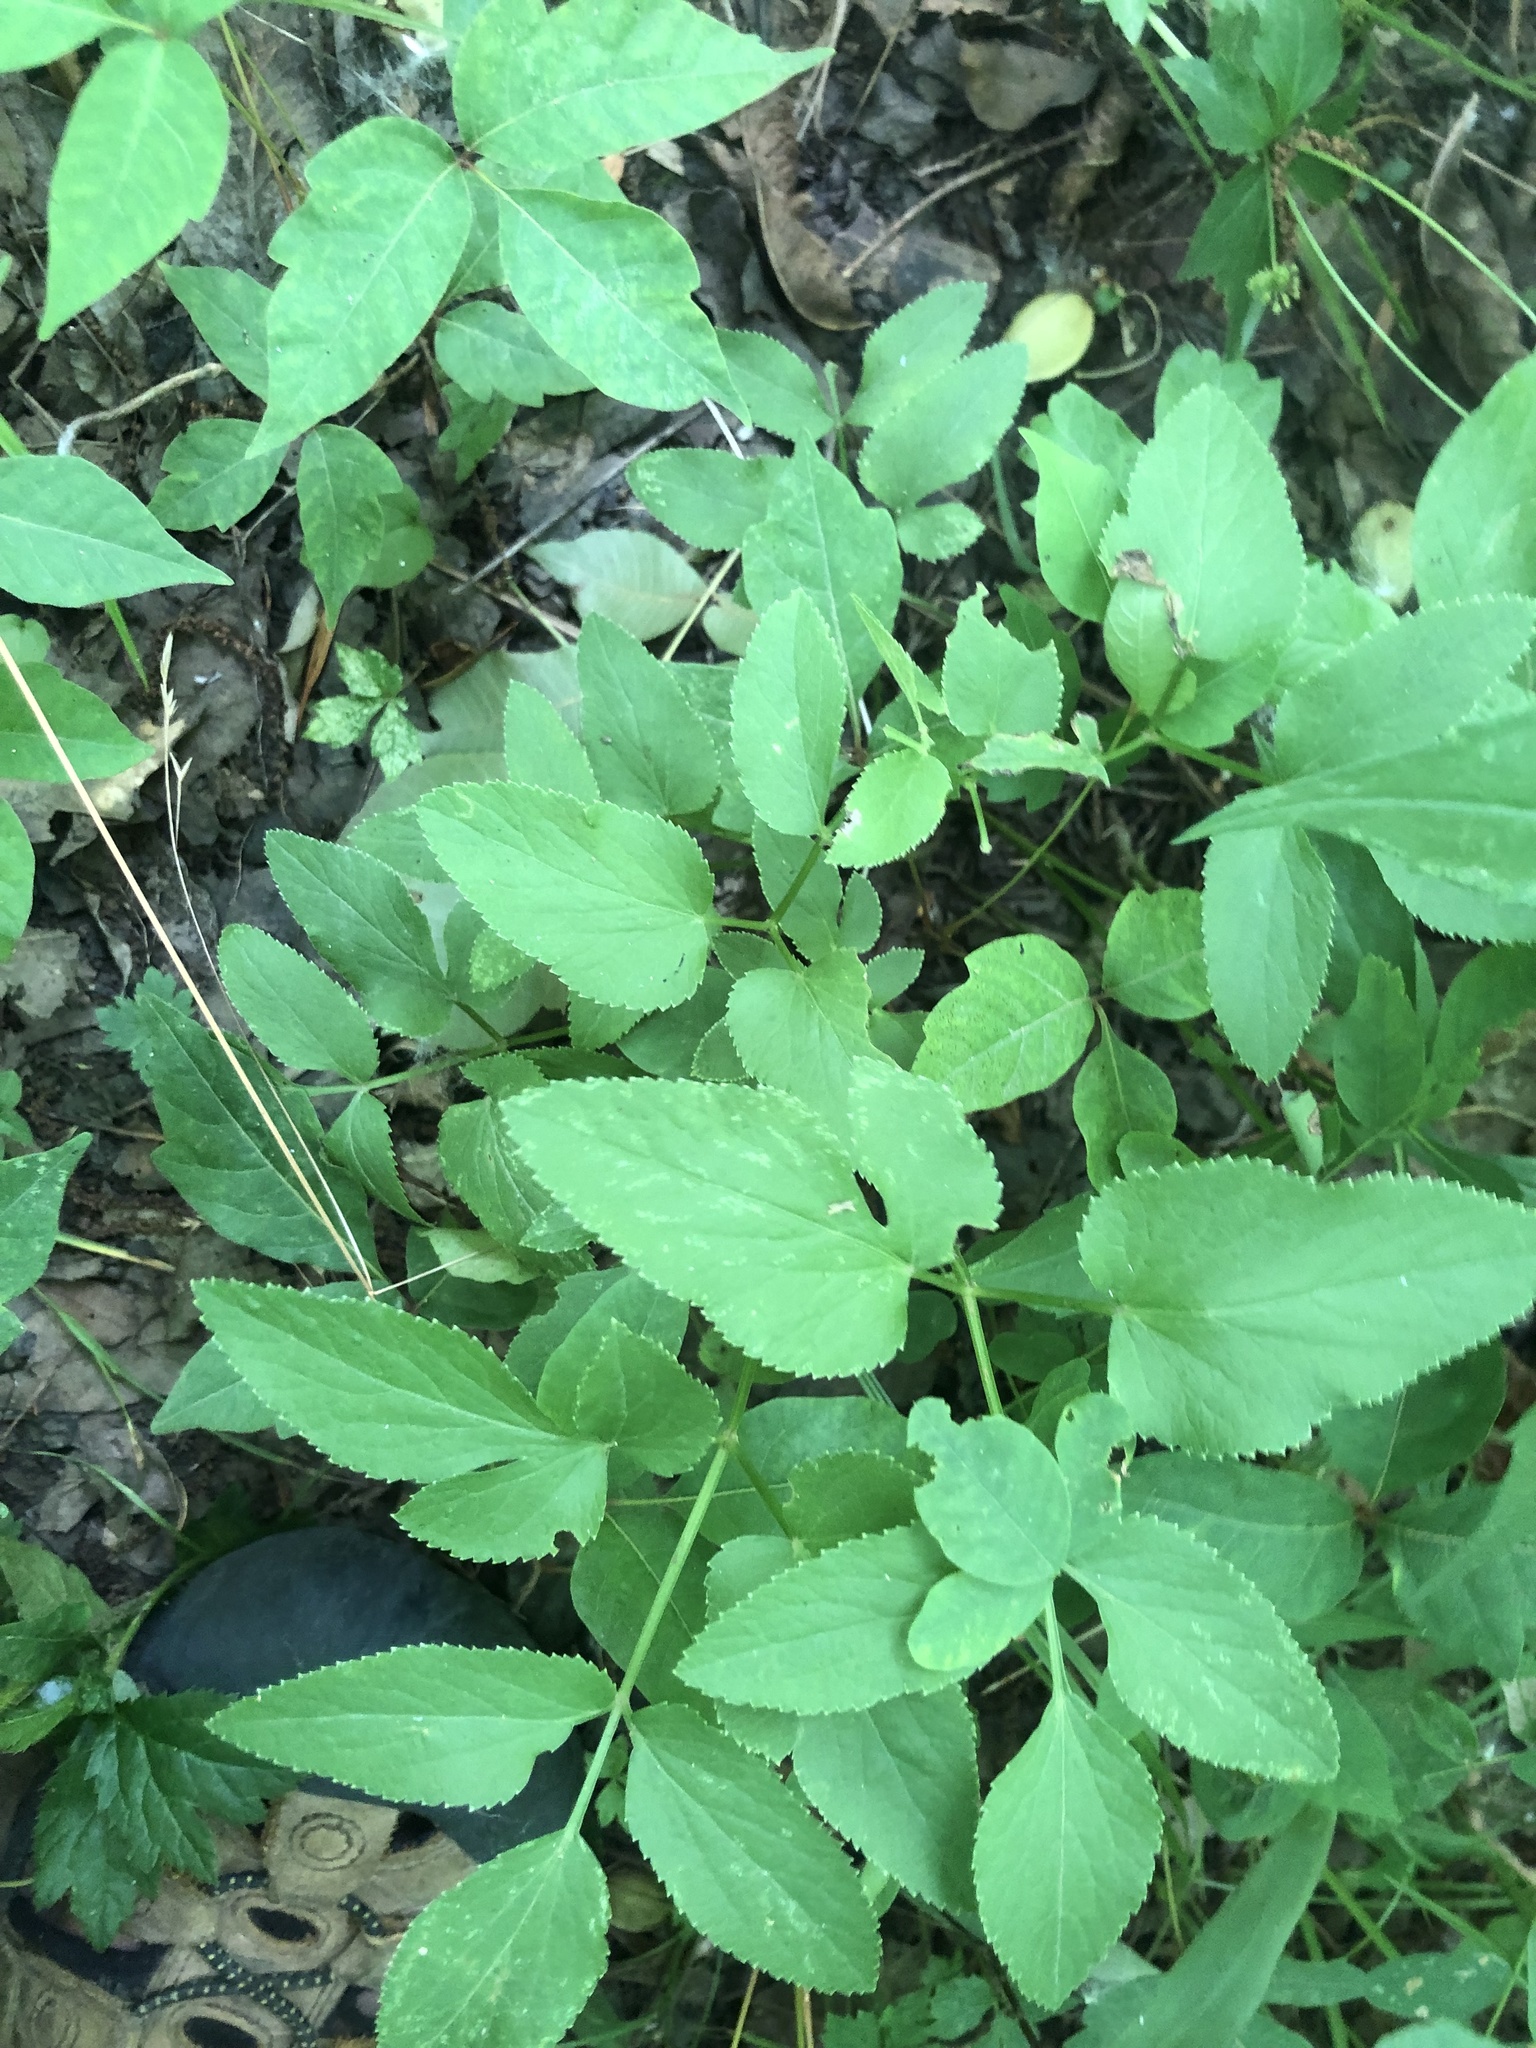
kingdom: Plantae
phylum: Tracheophyta
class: Magnoliopsida
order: Apiales
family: Apiaceae
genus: Zizia
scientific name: Zizia aurea
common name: Golden alexanders
